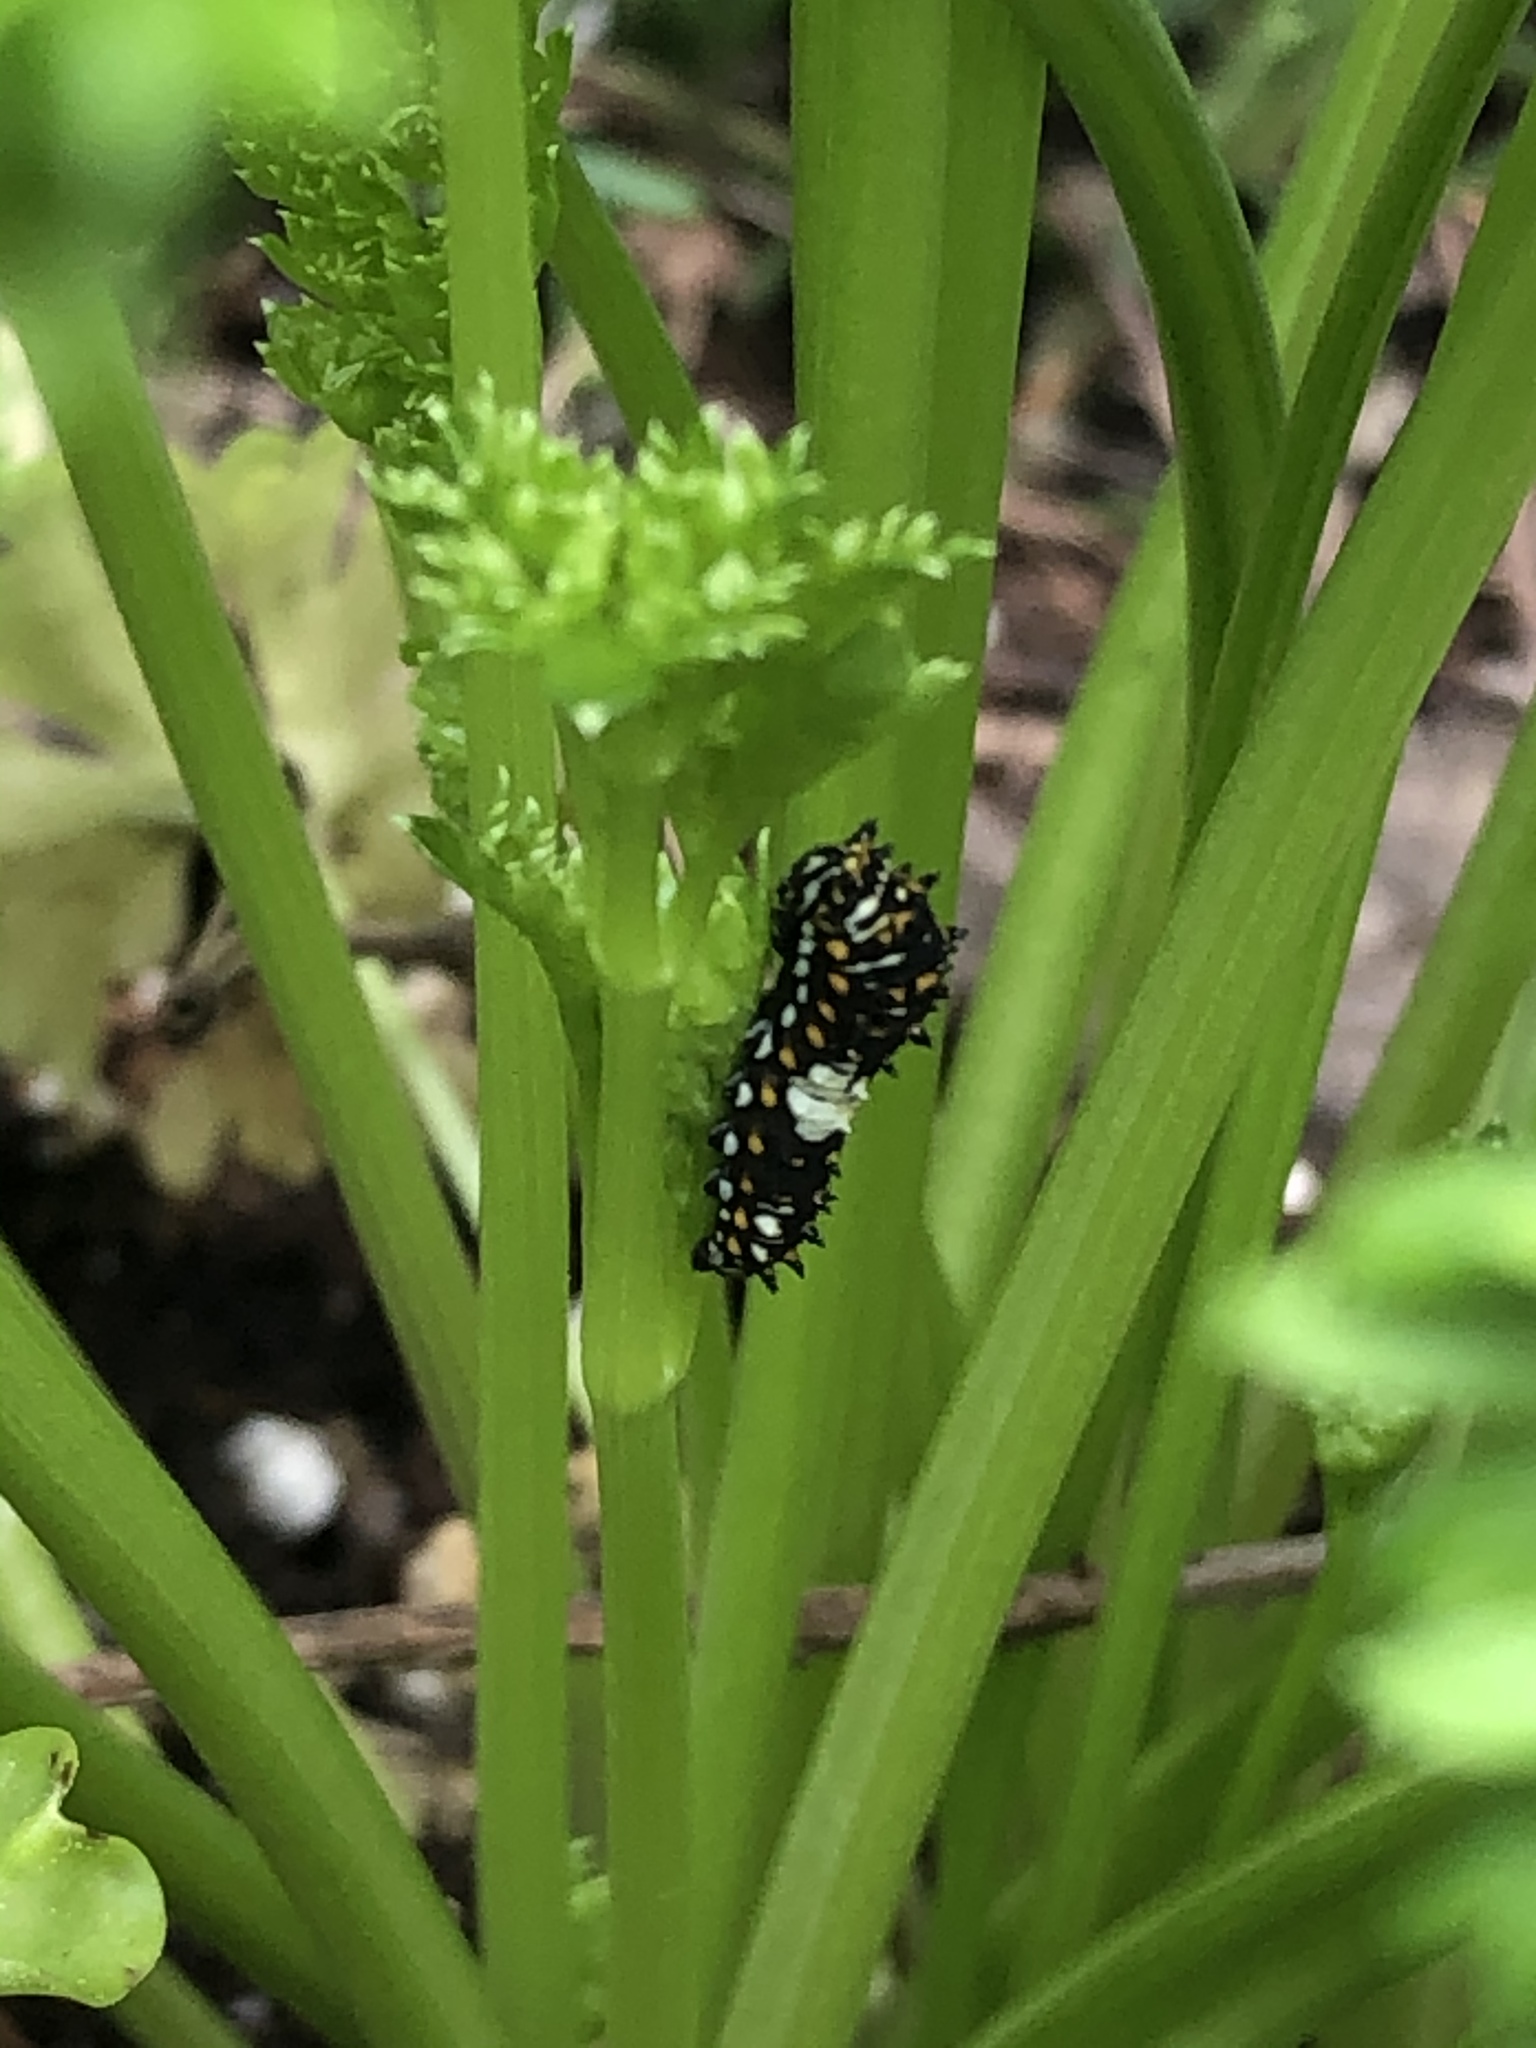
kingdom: Animalia
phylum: Arthropoda
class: Insecta
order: Lepidoptera
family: Papilionidae
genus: Papilio
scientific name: Papilio polyxenes
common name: Black swallowtail
